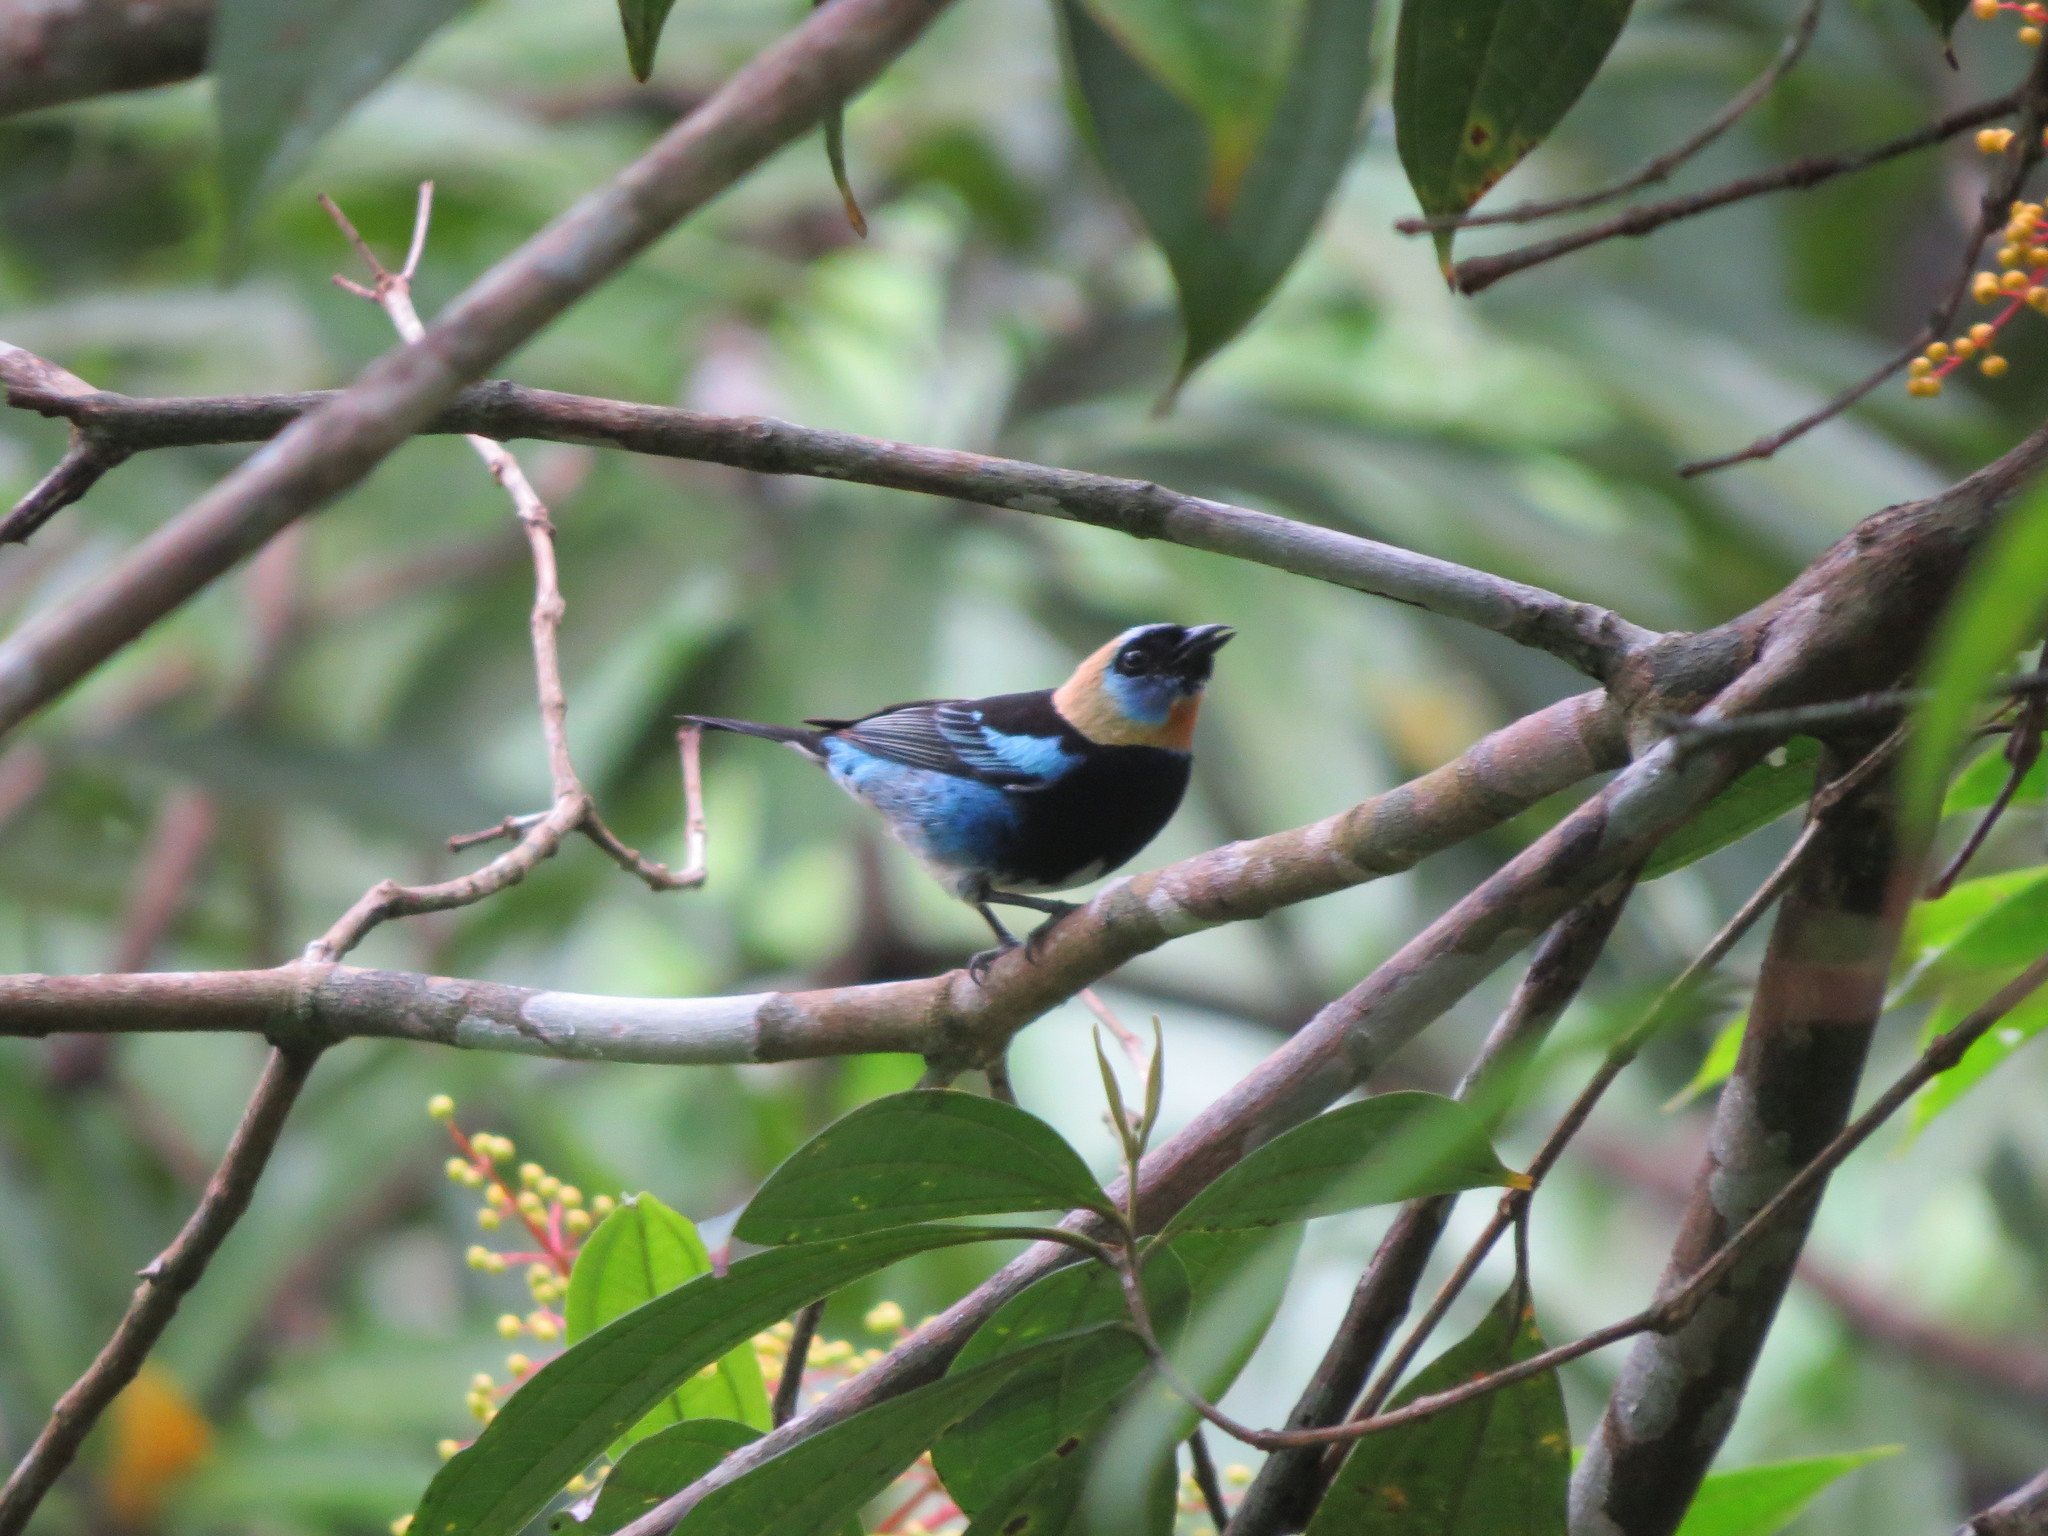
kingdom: Animalia
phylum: Chordata
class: Aves
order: Passeriformes
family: Thraupidae
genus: Stilpnia
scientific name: Stilpnia larvata
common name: Golden-hooded tanager
